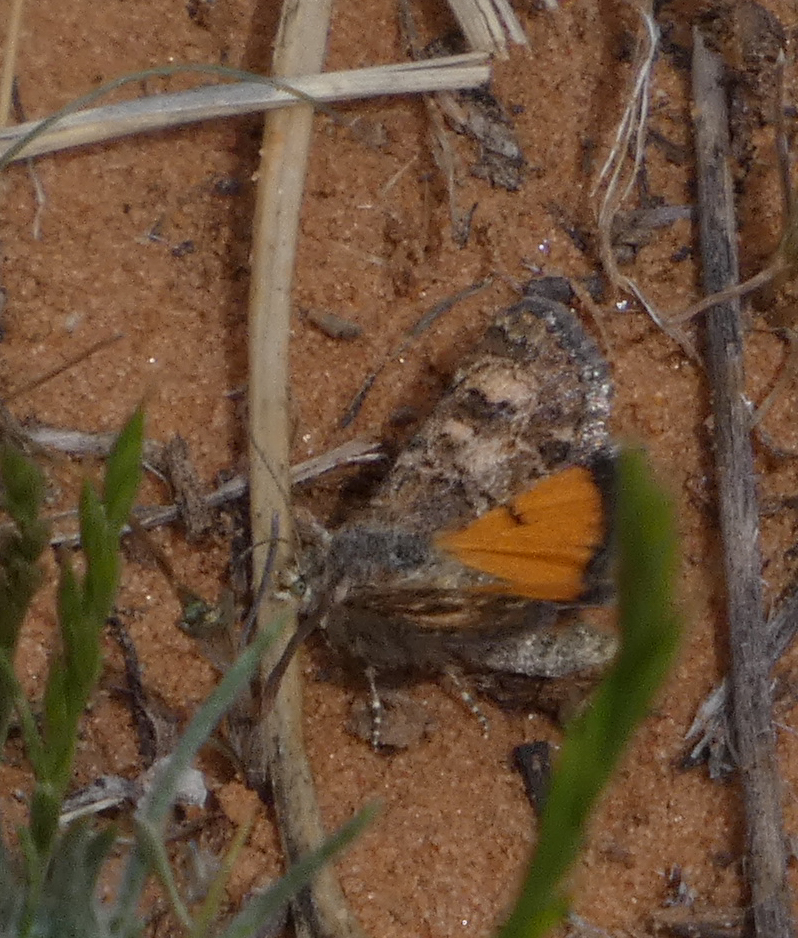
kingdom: Animalia
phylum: Arthropoda
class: Insecta
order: Lepidoptera
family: Noctuidae
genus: Schinia
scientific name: Schinia aurantiaca
